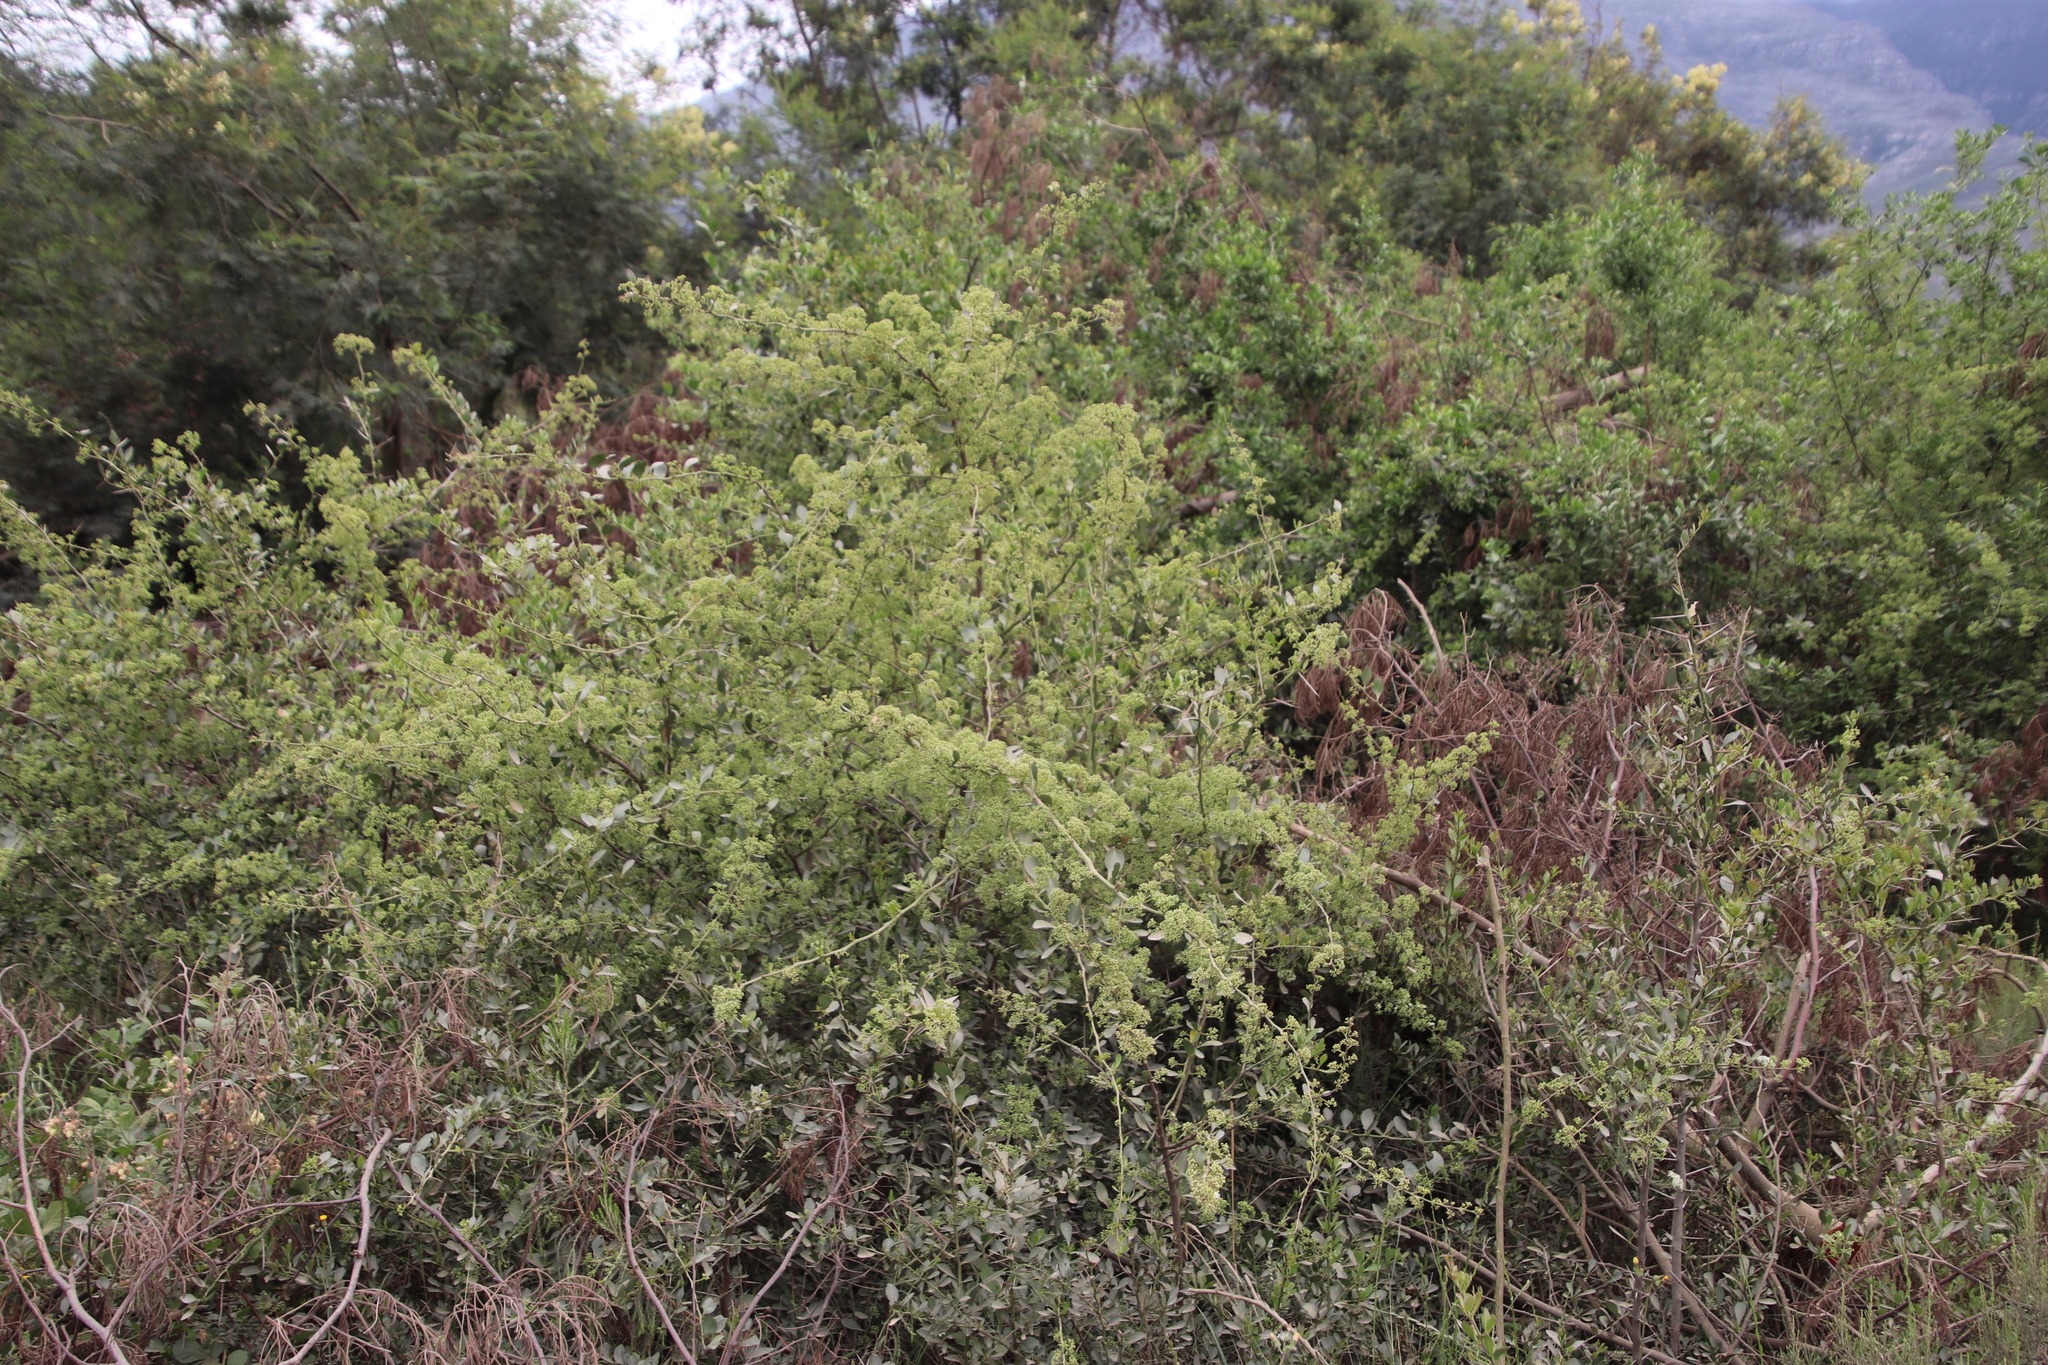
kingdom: Plantae
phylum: Tracheophyta
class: Magnoliopsida
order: Celastrales
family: Celastraceae
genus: Gymnosporia
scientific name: Gymnosporia buxifolia
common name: Common spike-thorn
